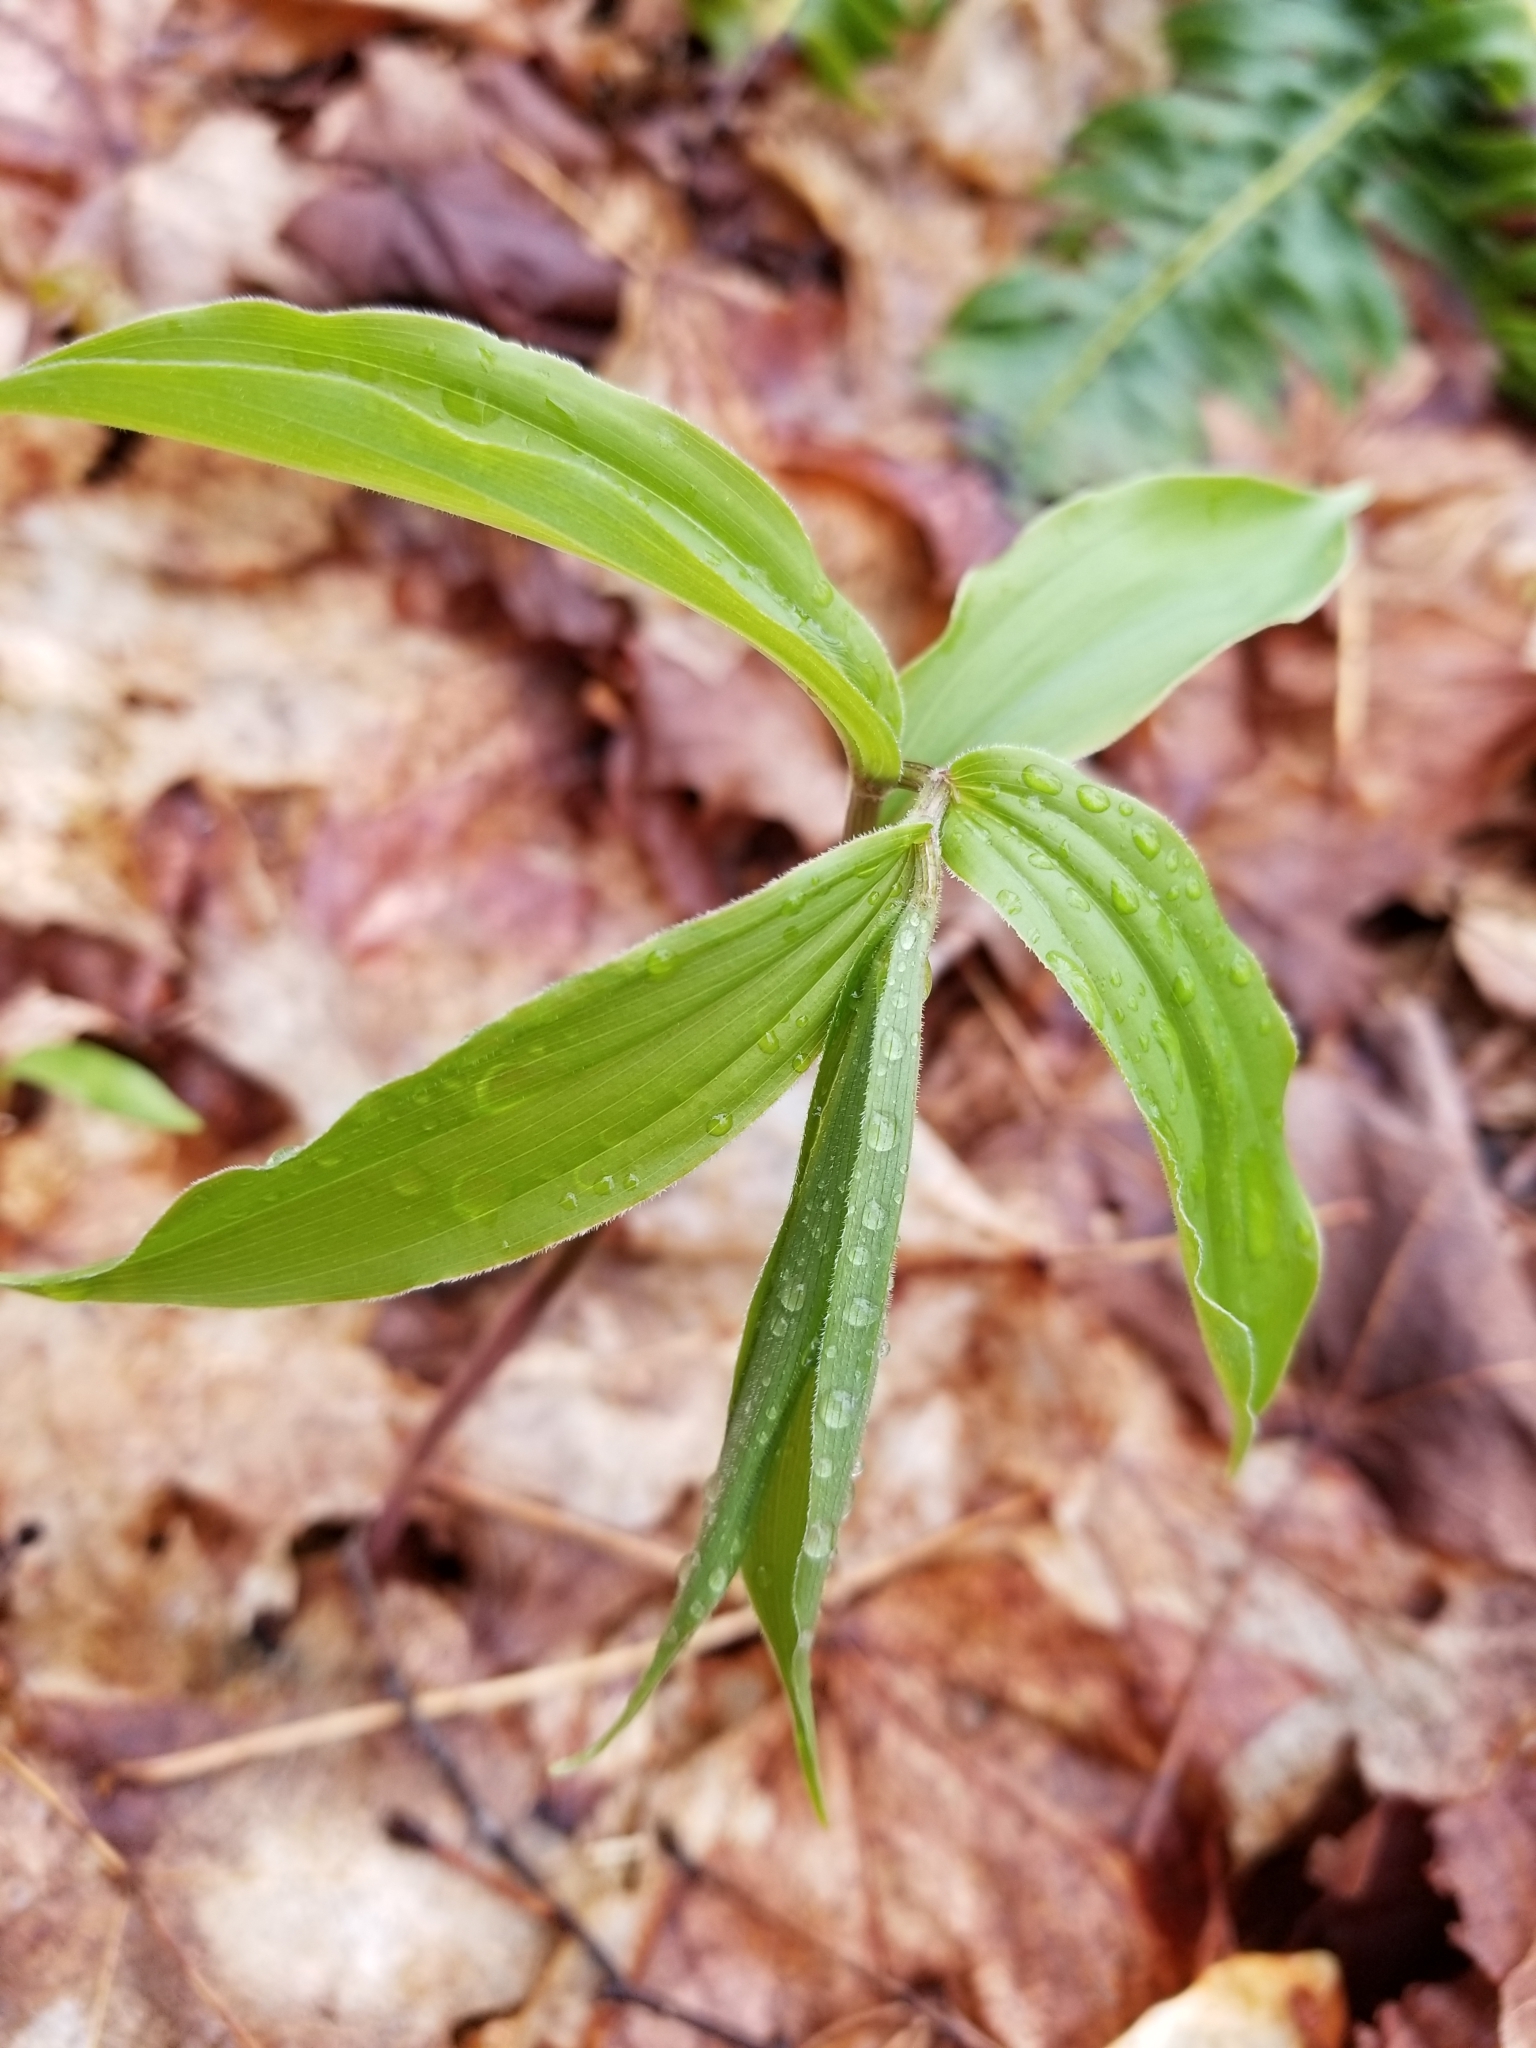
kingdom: Plantae
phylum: Tracheophyta
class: Liliopsida
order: Asparagales
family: Asparagaceae
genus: Maianthemum
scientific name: Maianthemum racemosum
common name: False spikenard
